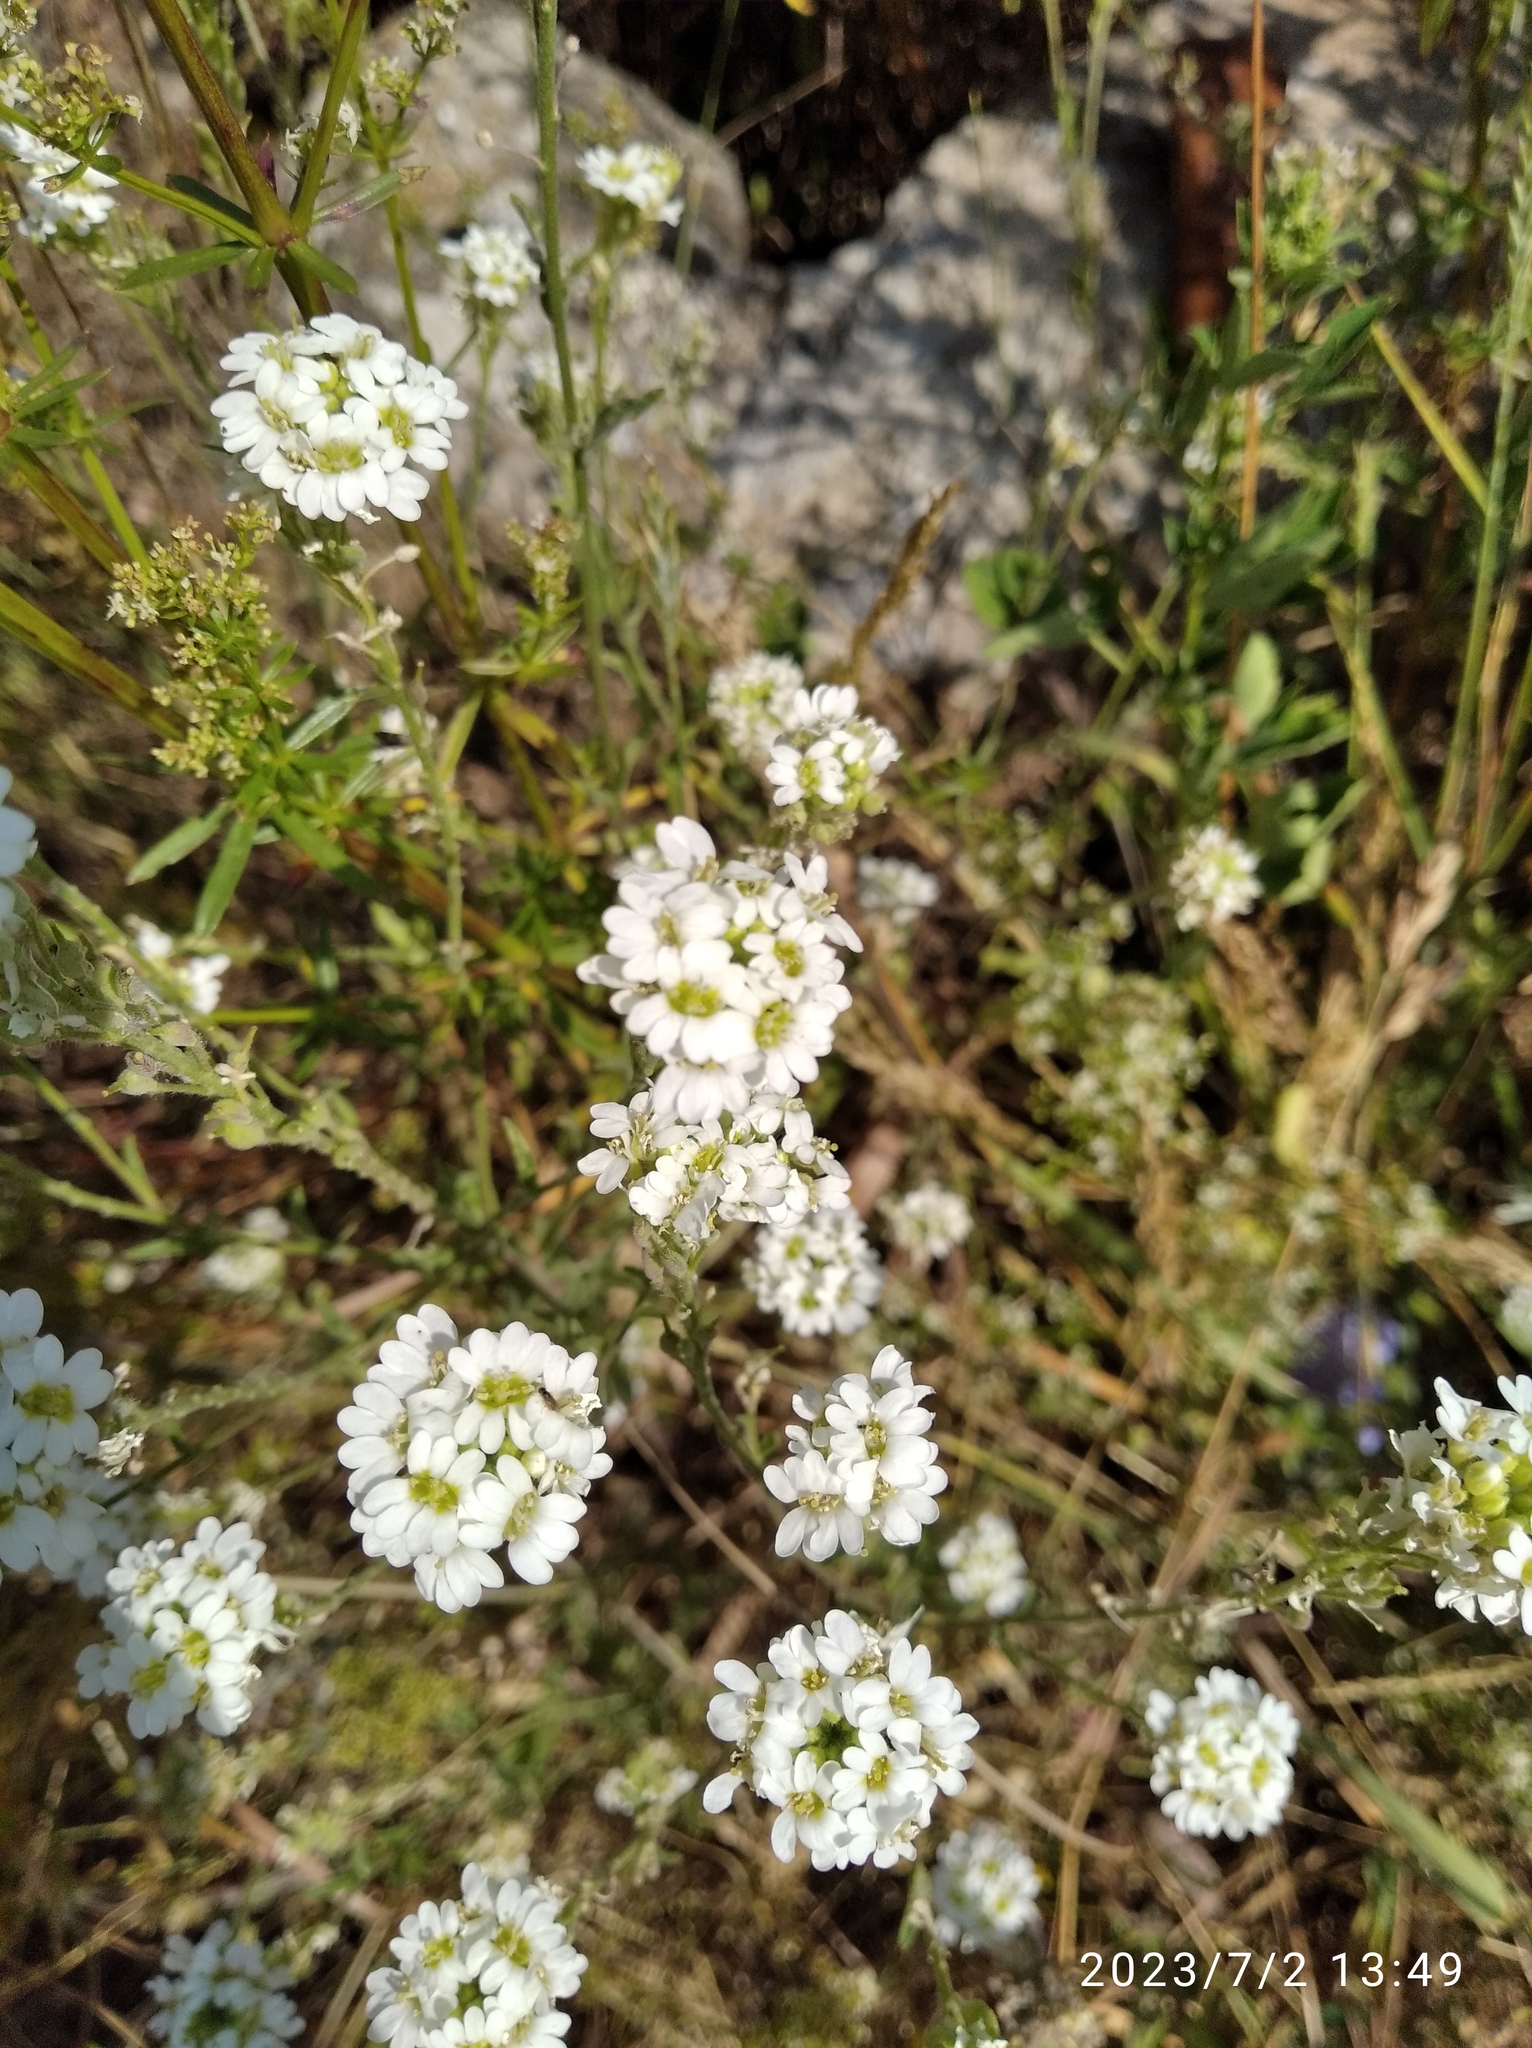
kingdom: Plantae
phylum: Tracheophyta
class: Magnoliopsida
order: Brassicales
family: Brassicaceae
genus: Berteroa
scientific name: Berteroa incana
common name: Hoary alison
